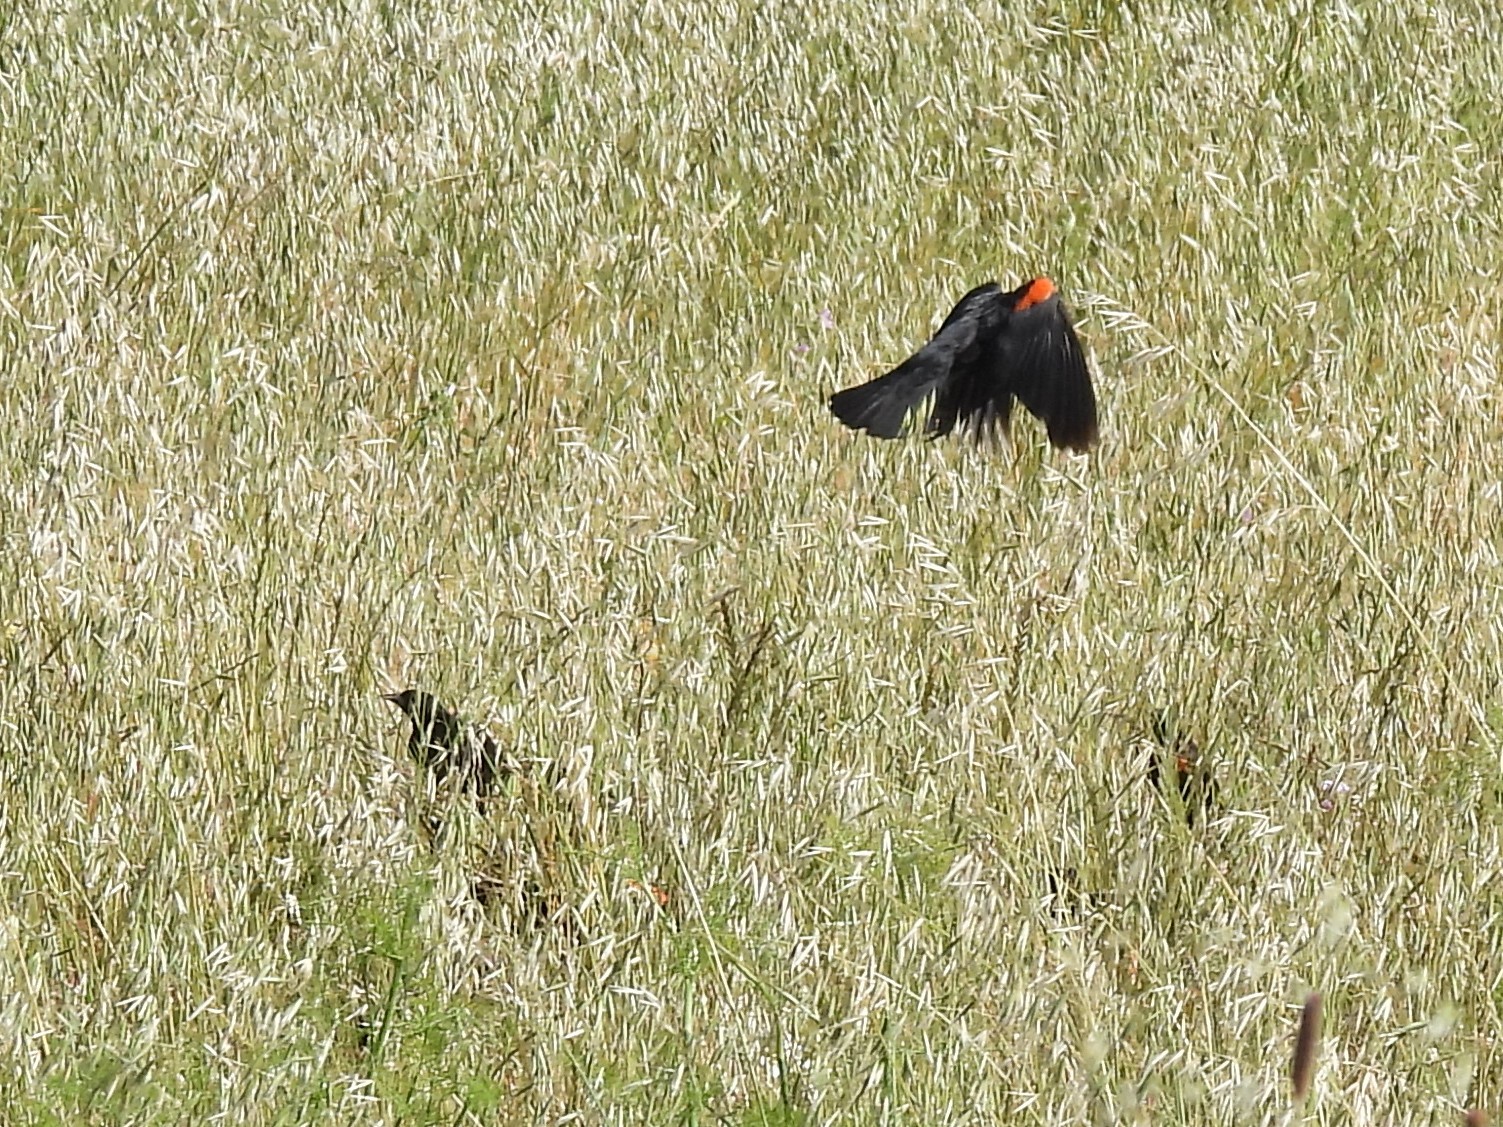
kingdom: Animalia
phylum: Chordata
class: Aves
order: Passeriformes
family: Icteridae
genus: Agelaius
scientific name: Agelaius phoeniceus
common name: Red-winged blackbird
